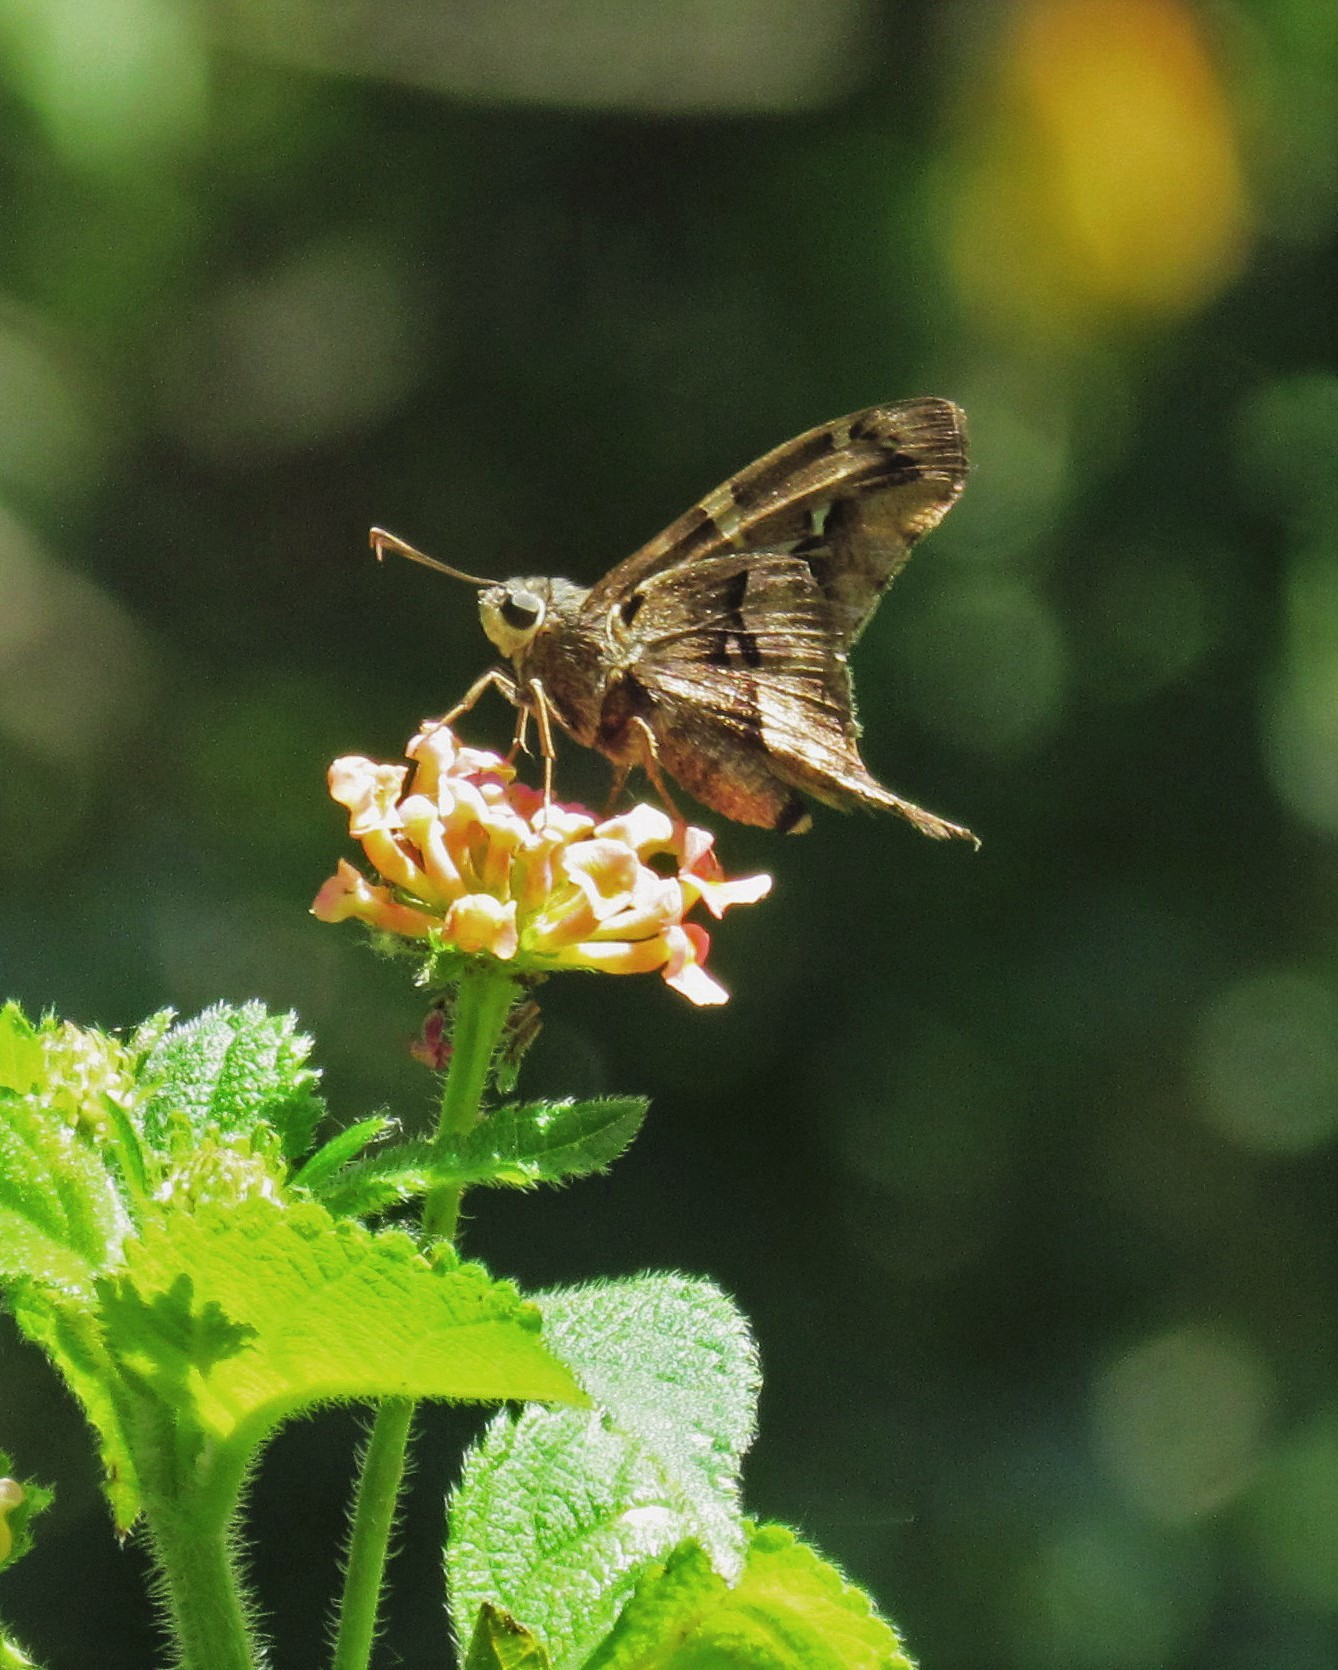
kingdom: Animalia
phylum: Arthropoda
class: Insecta
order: Lepidoptera
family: Hesperiidae
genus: Aguna
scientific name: Aguna megaeles
